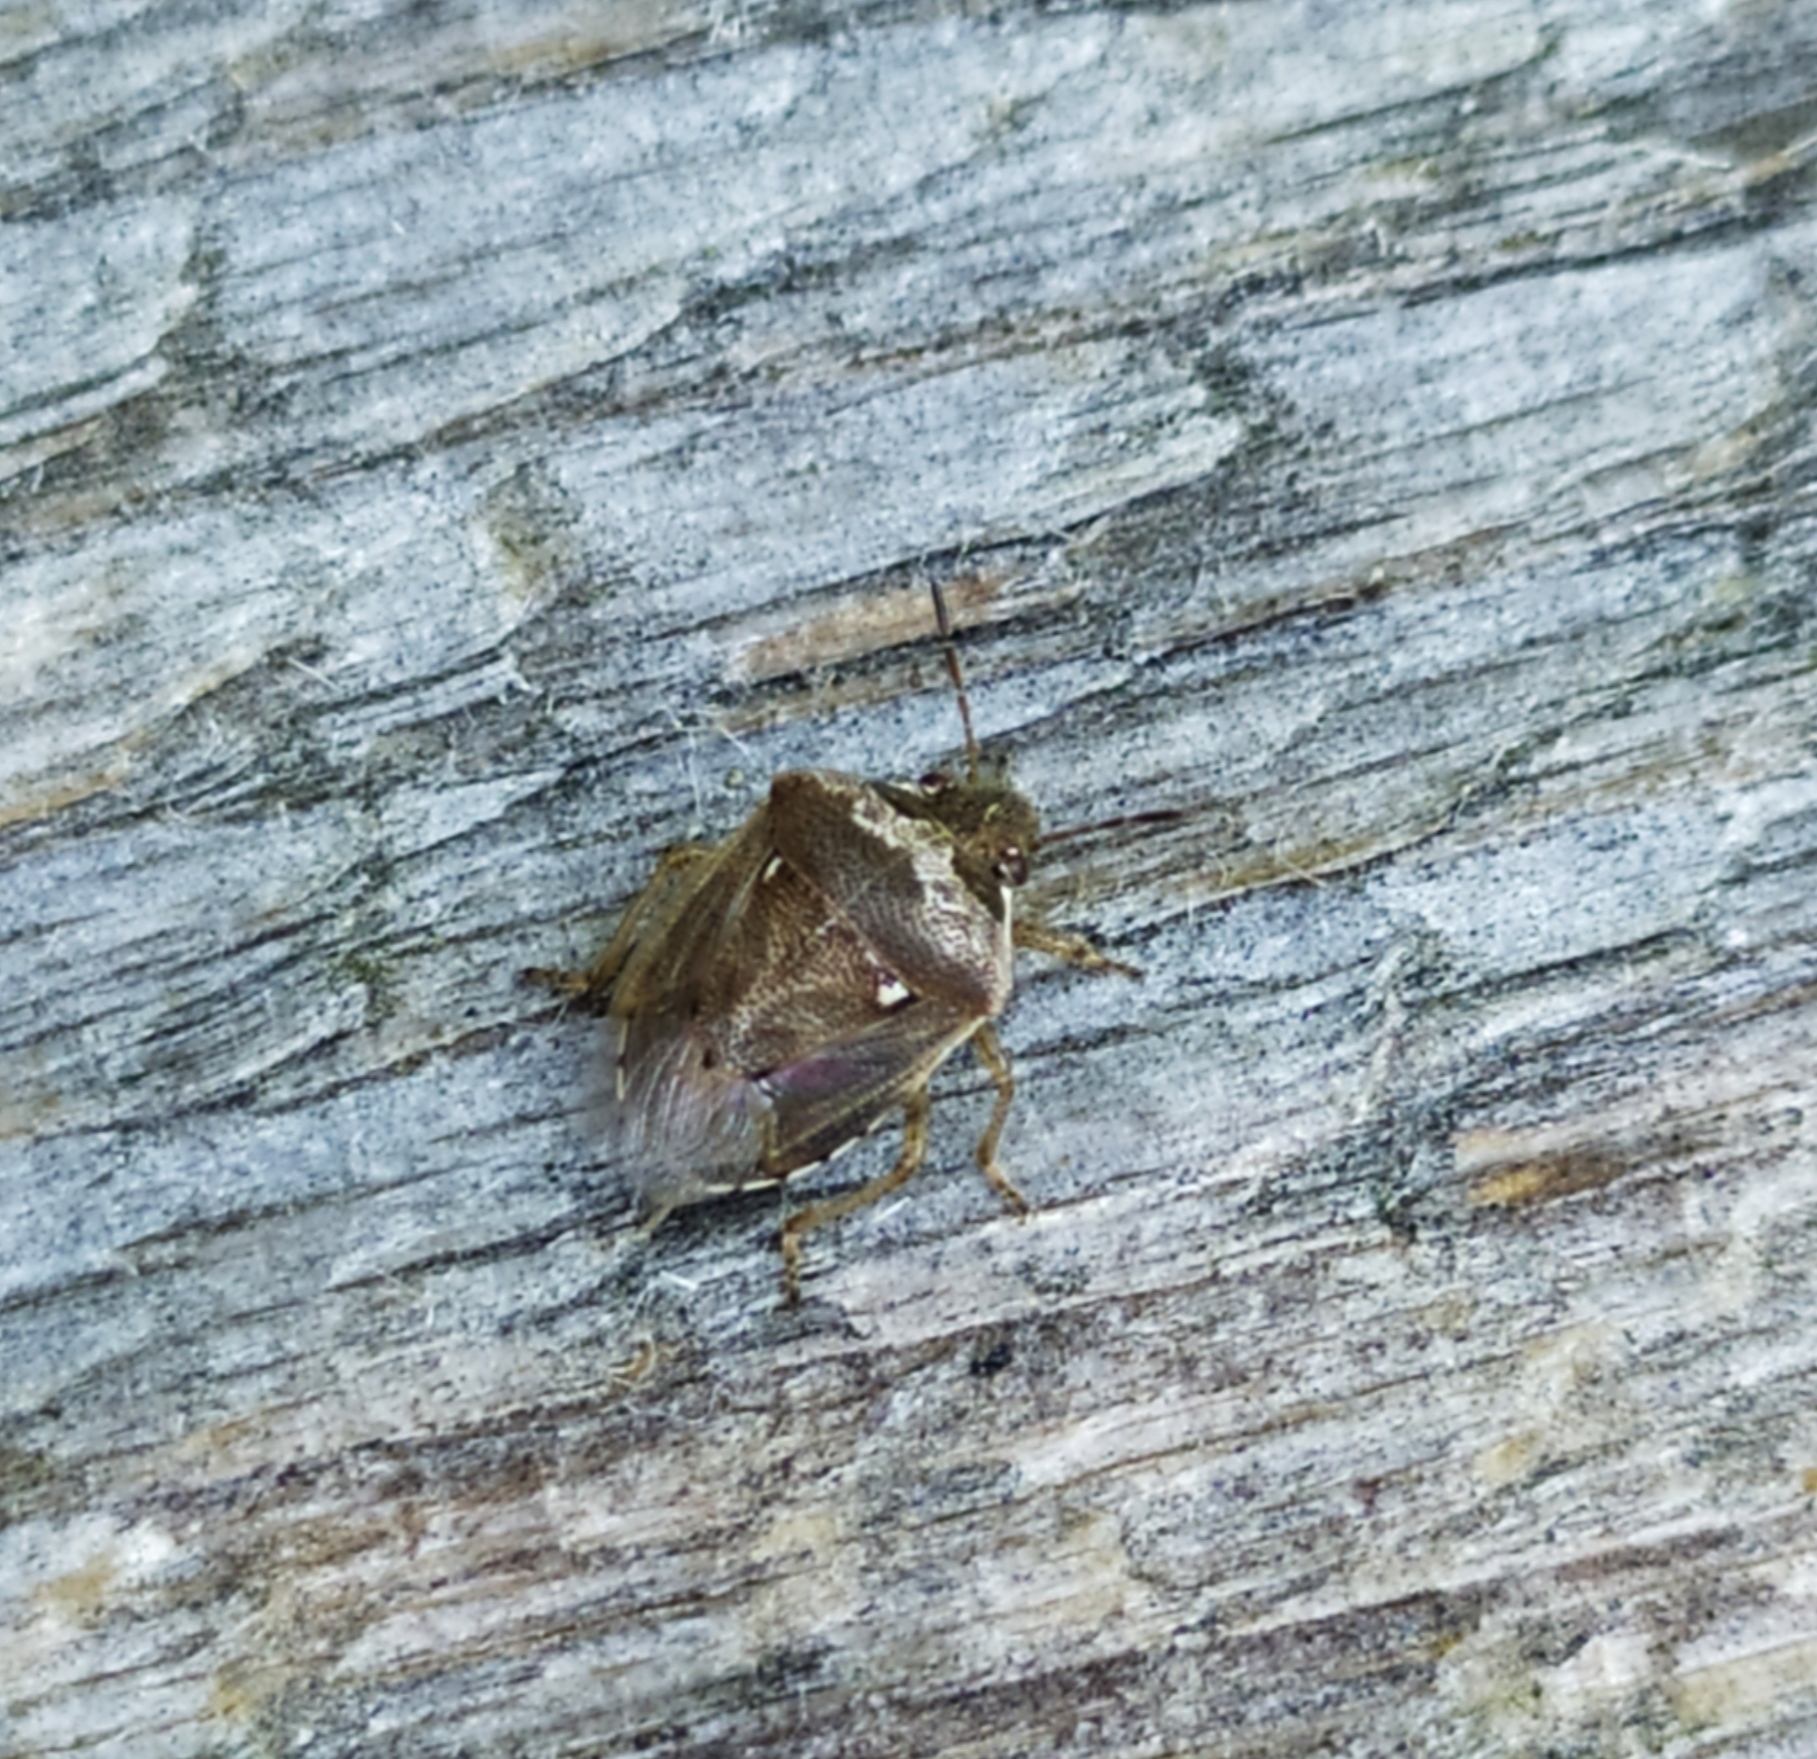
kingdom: Animalia
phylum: Arthropoda
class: Insecta
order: Hemiptera
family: Pentatomidae
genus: Eysarcoris
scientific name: Eysarcoris ventralis
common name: White-spotted stink bug
